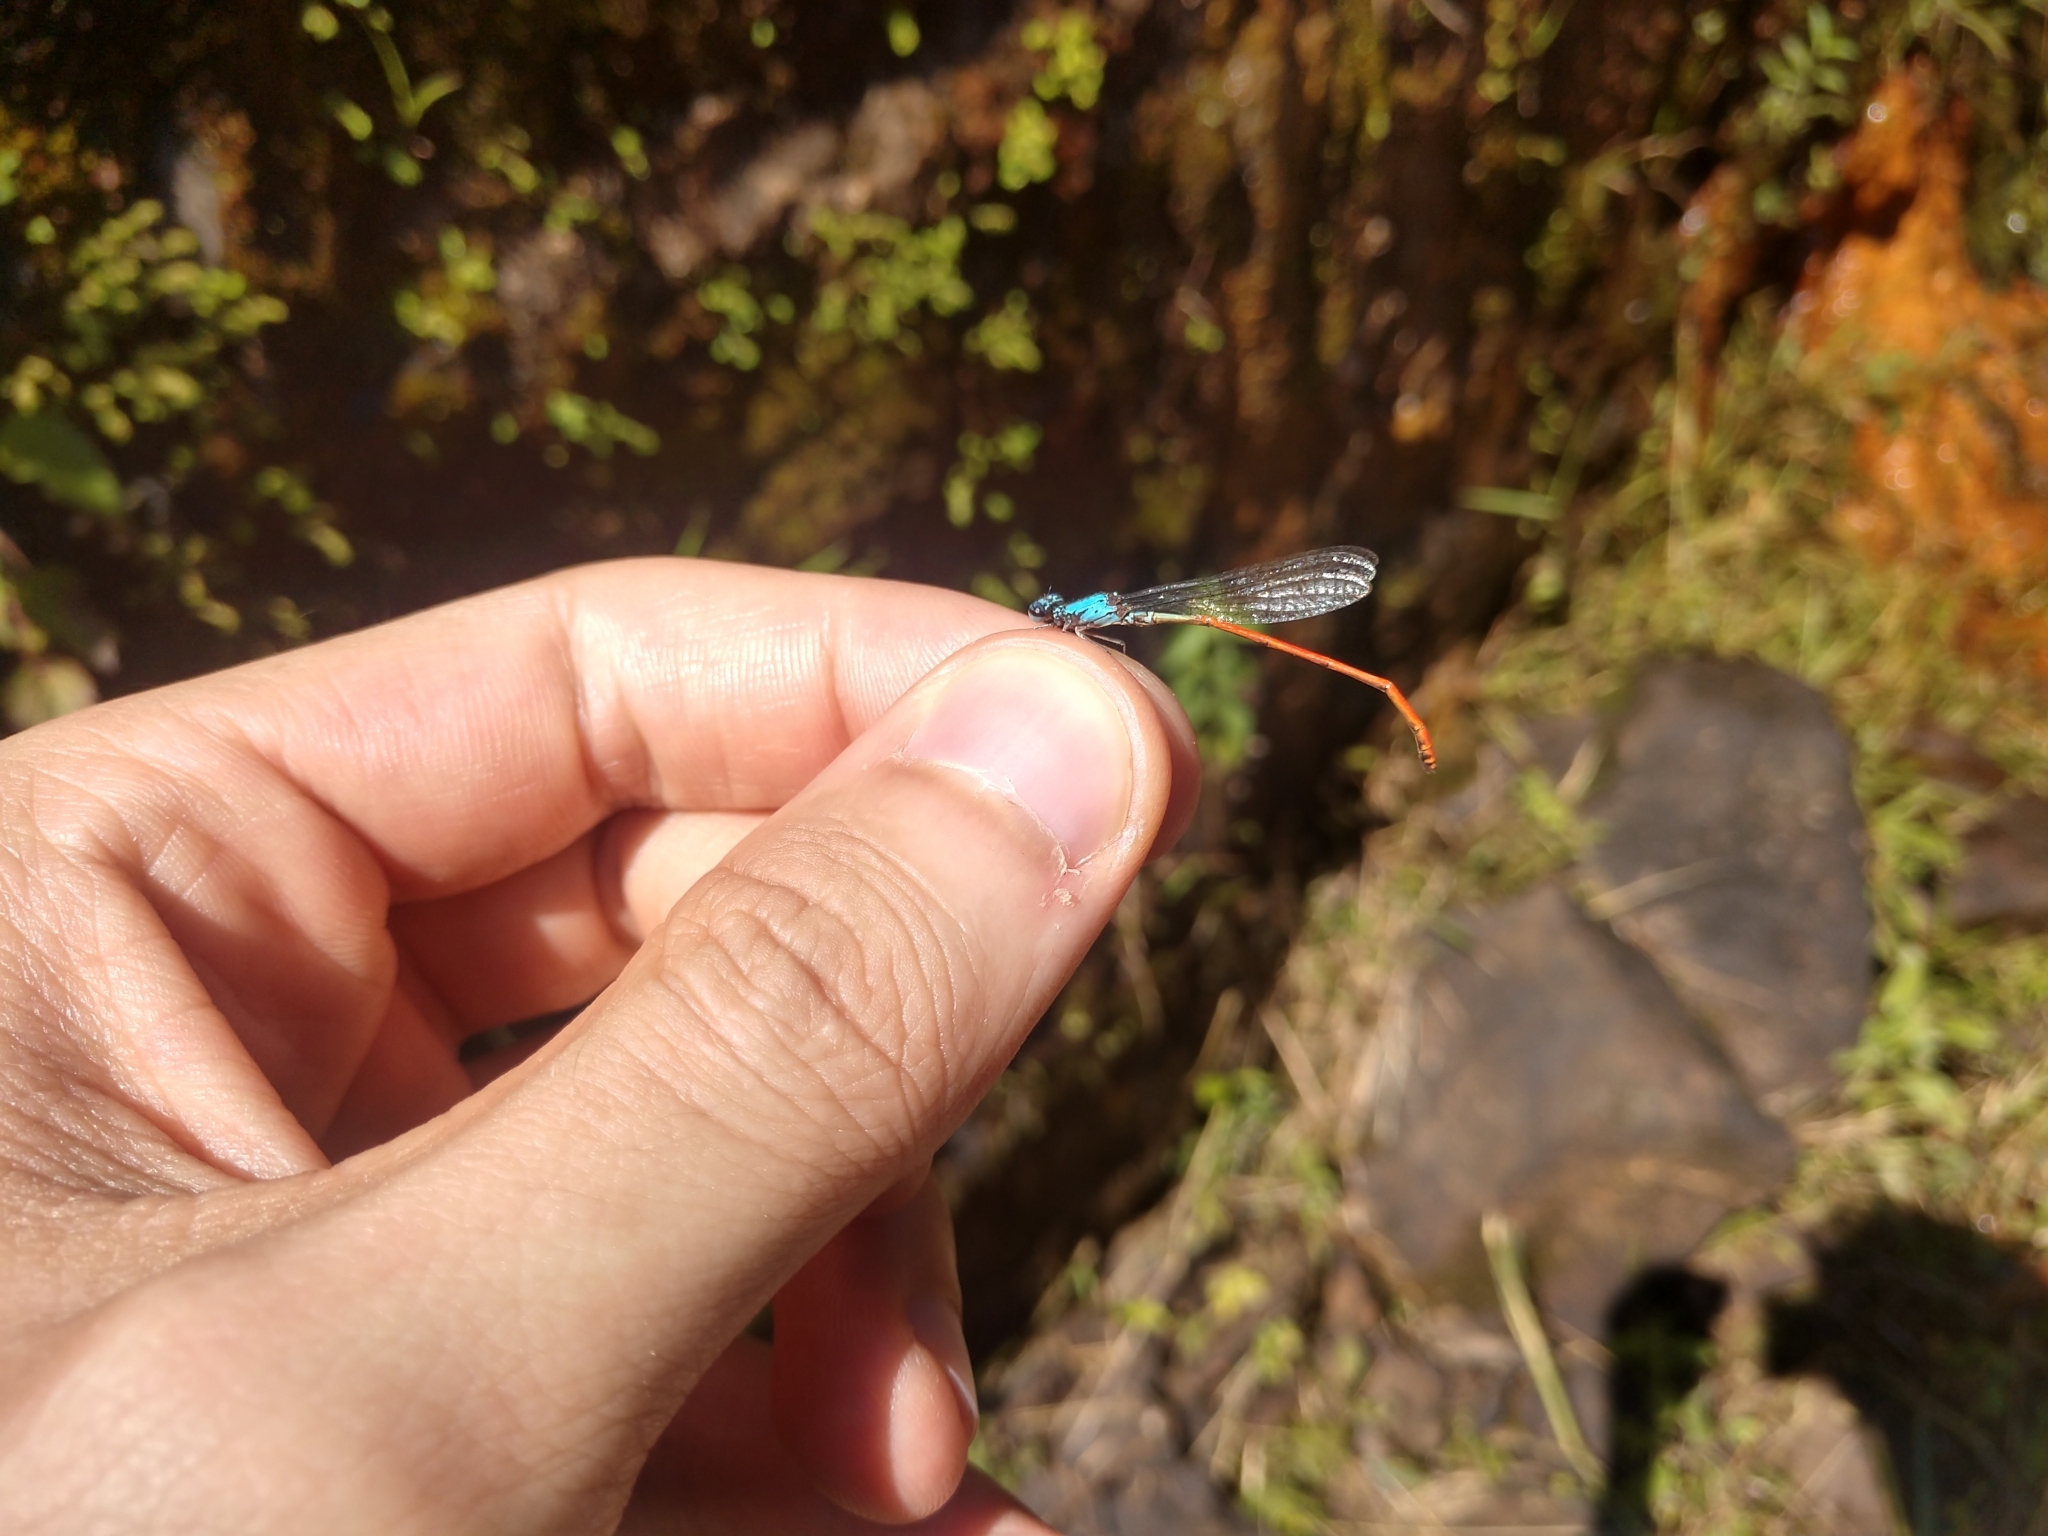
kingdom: Animalia
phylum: Arthropoda
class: Insecta
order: Odonata
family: Coenagrionidae
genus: Neoneura
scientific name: Neoneura sylvatica
